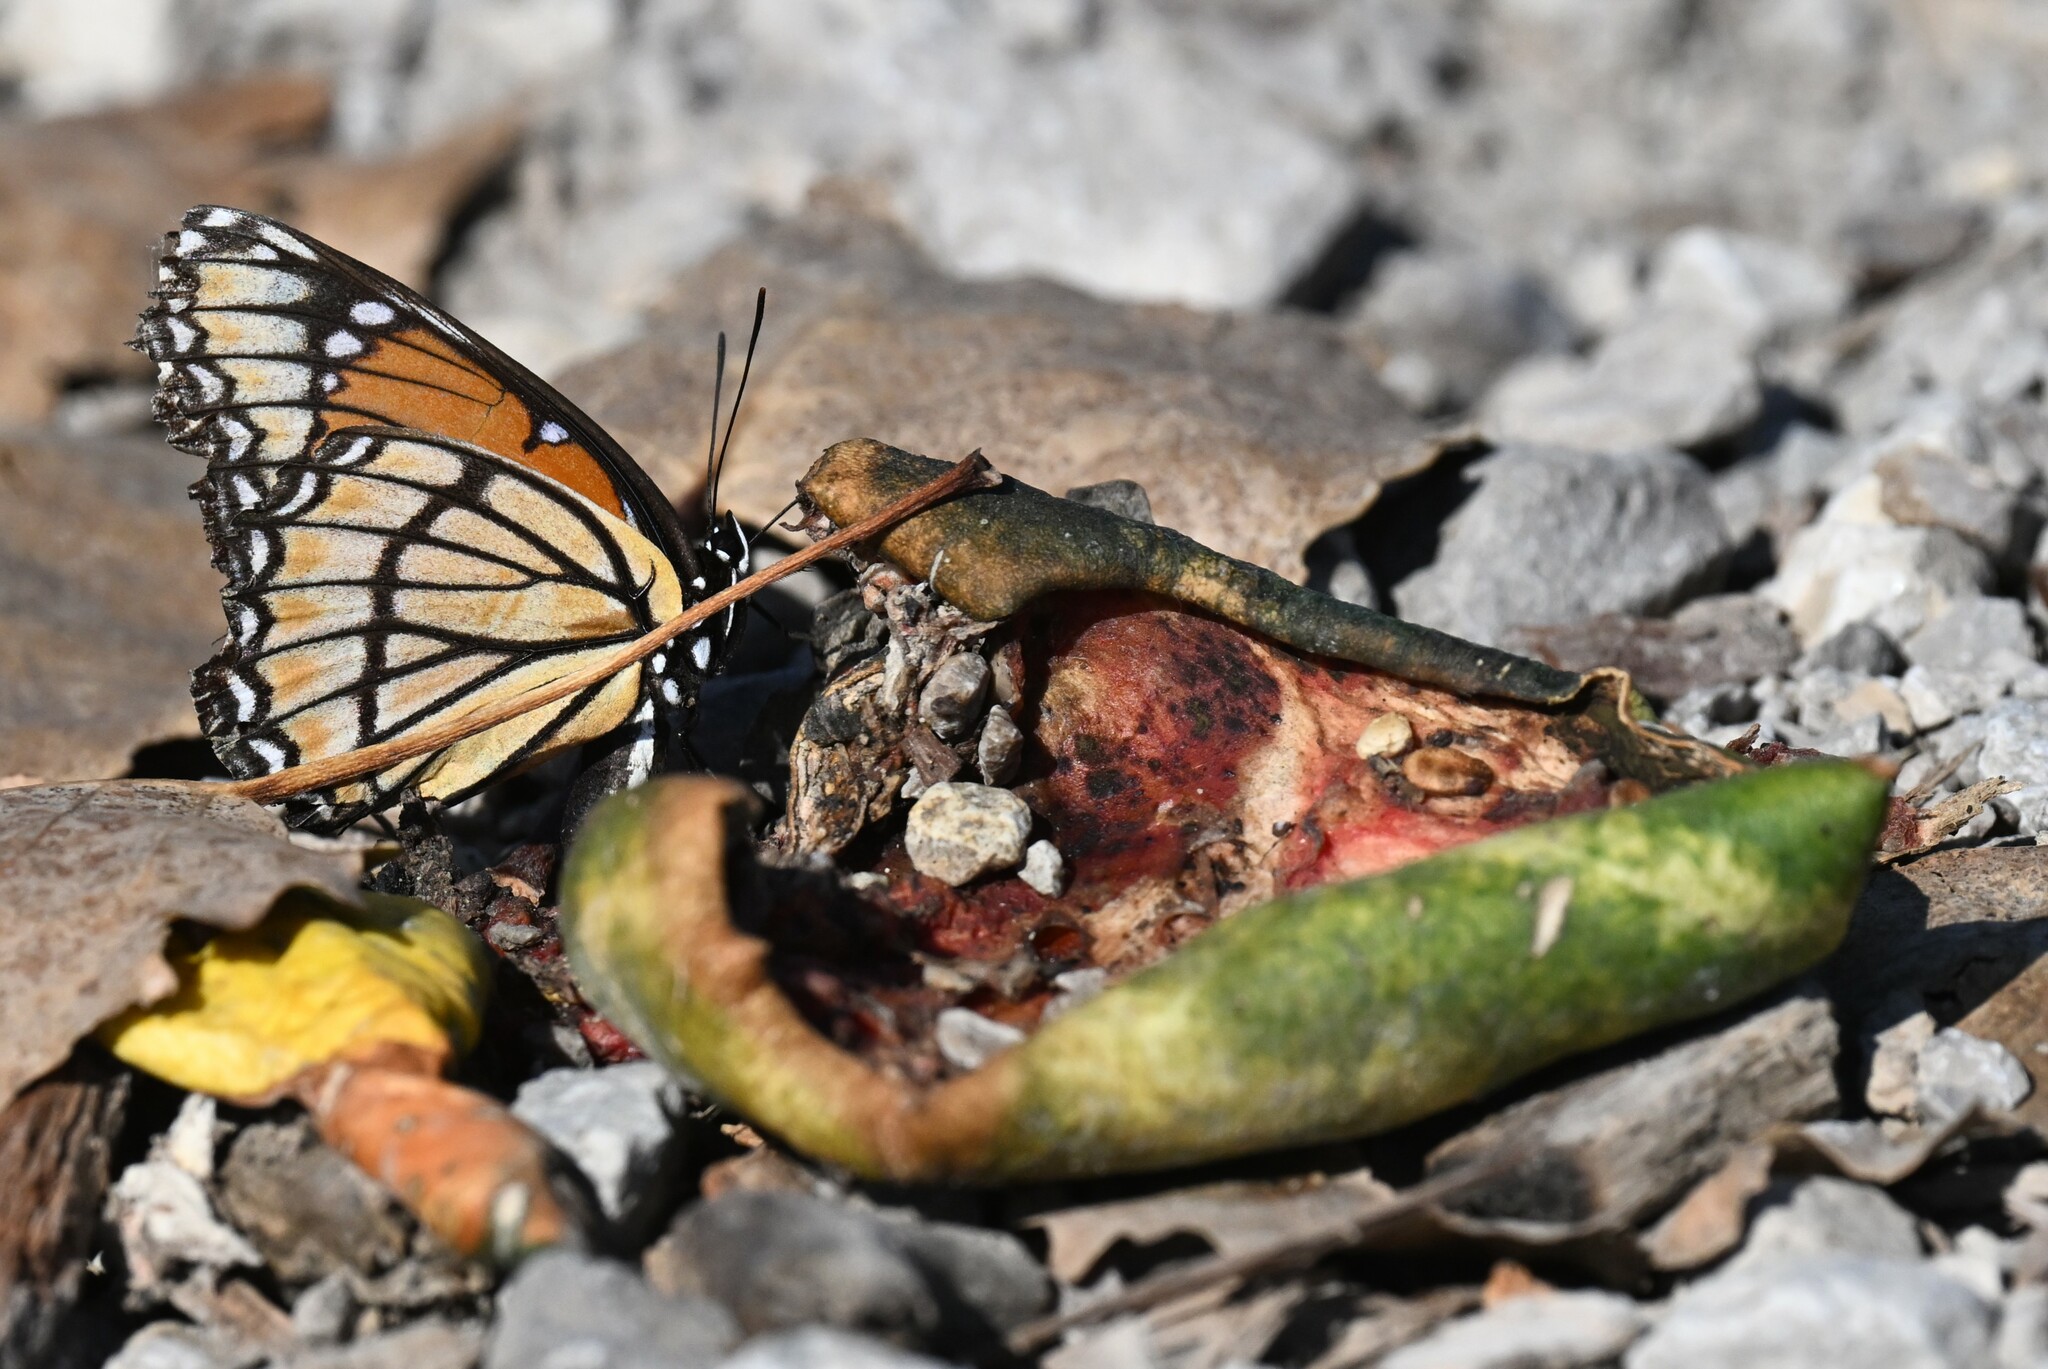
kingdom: Animalia
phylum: Arthropoda
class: Insecta
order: Lepidoptera
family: Nymphalidae
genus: Limenitis
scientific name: Limenitis archippus
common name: Viceroy
